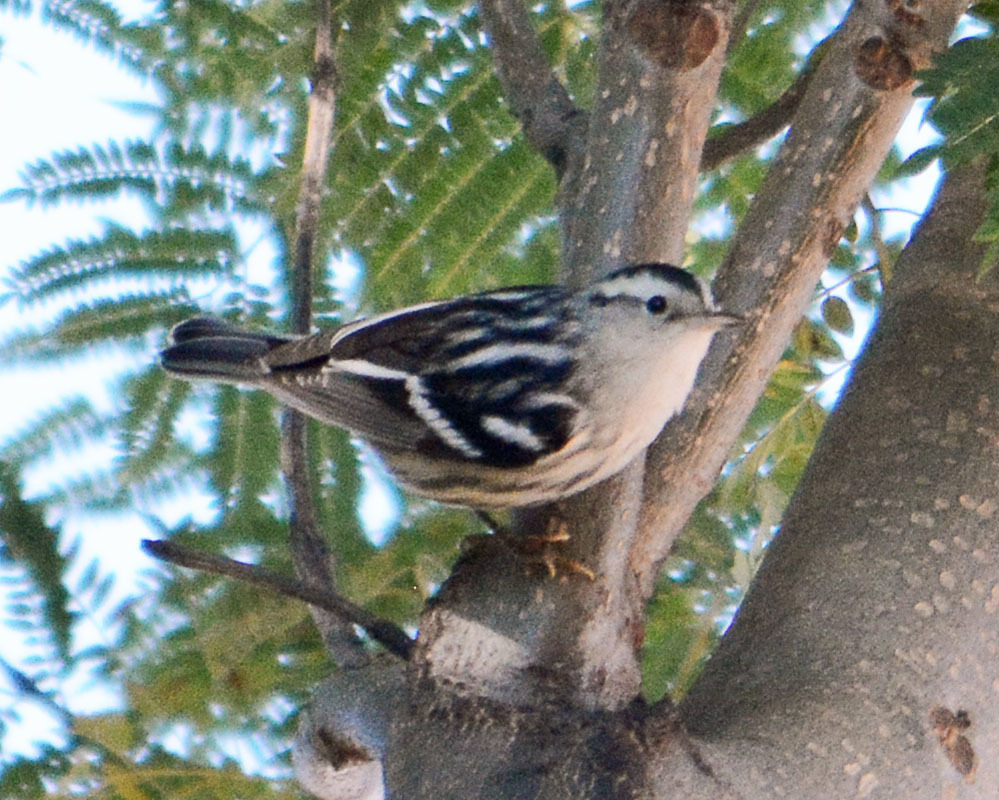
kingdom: Animalia
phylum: Chordata
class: Aves
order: Passeriformes
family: Parulidae
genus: Mniotilta
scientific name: Mniotilta varia
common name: Black-and-white warbler
